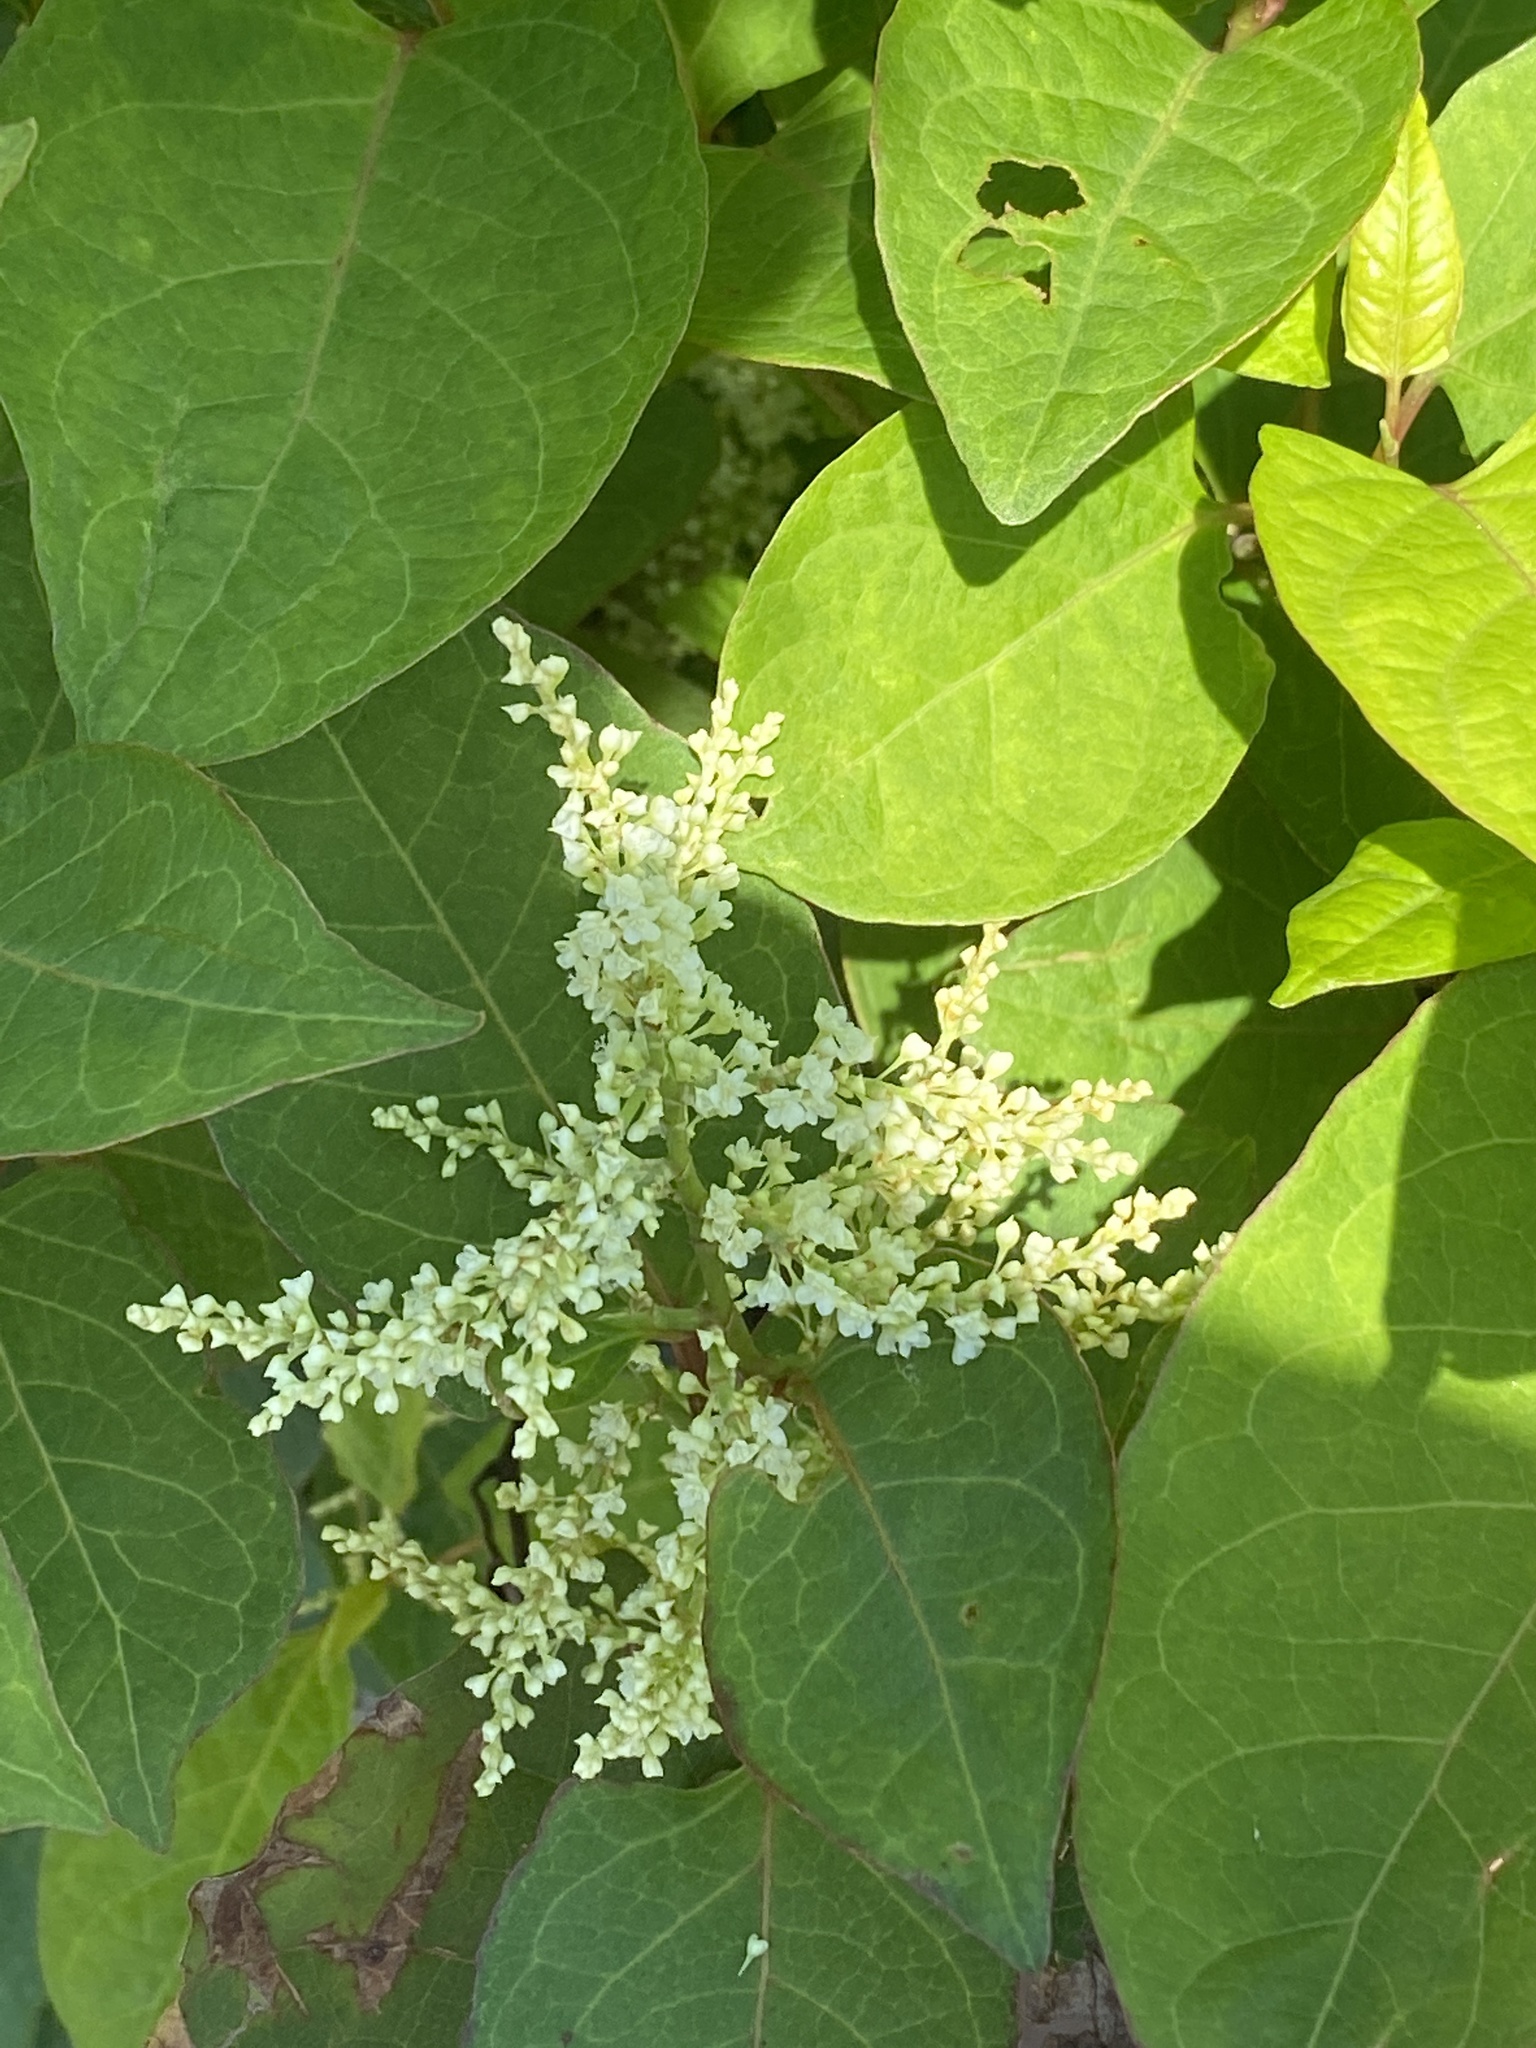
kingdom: Plantae
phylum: Tracheophyta
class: Magnoliopsida
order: Caryophyllales
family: Polygonaceae
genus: Reynoutria
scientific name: Reynoutria japonica
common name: Japanese knotweed
